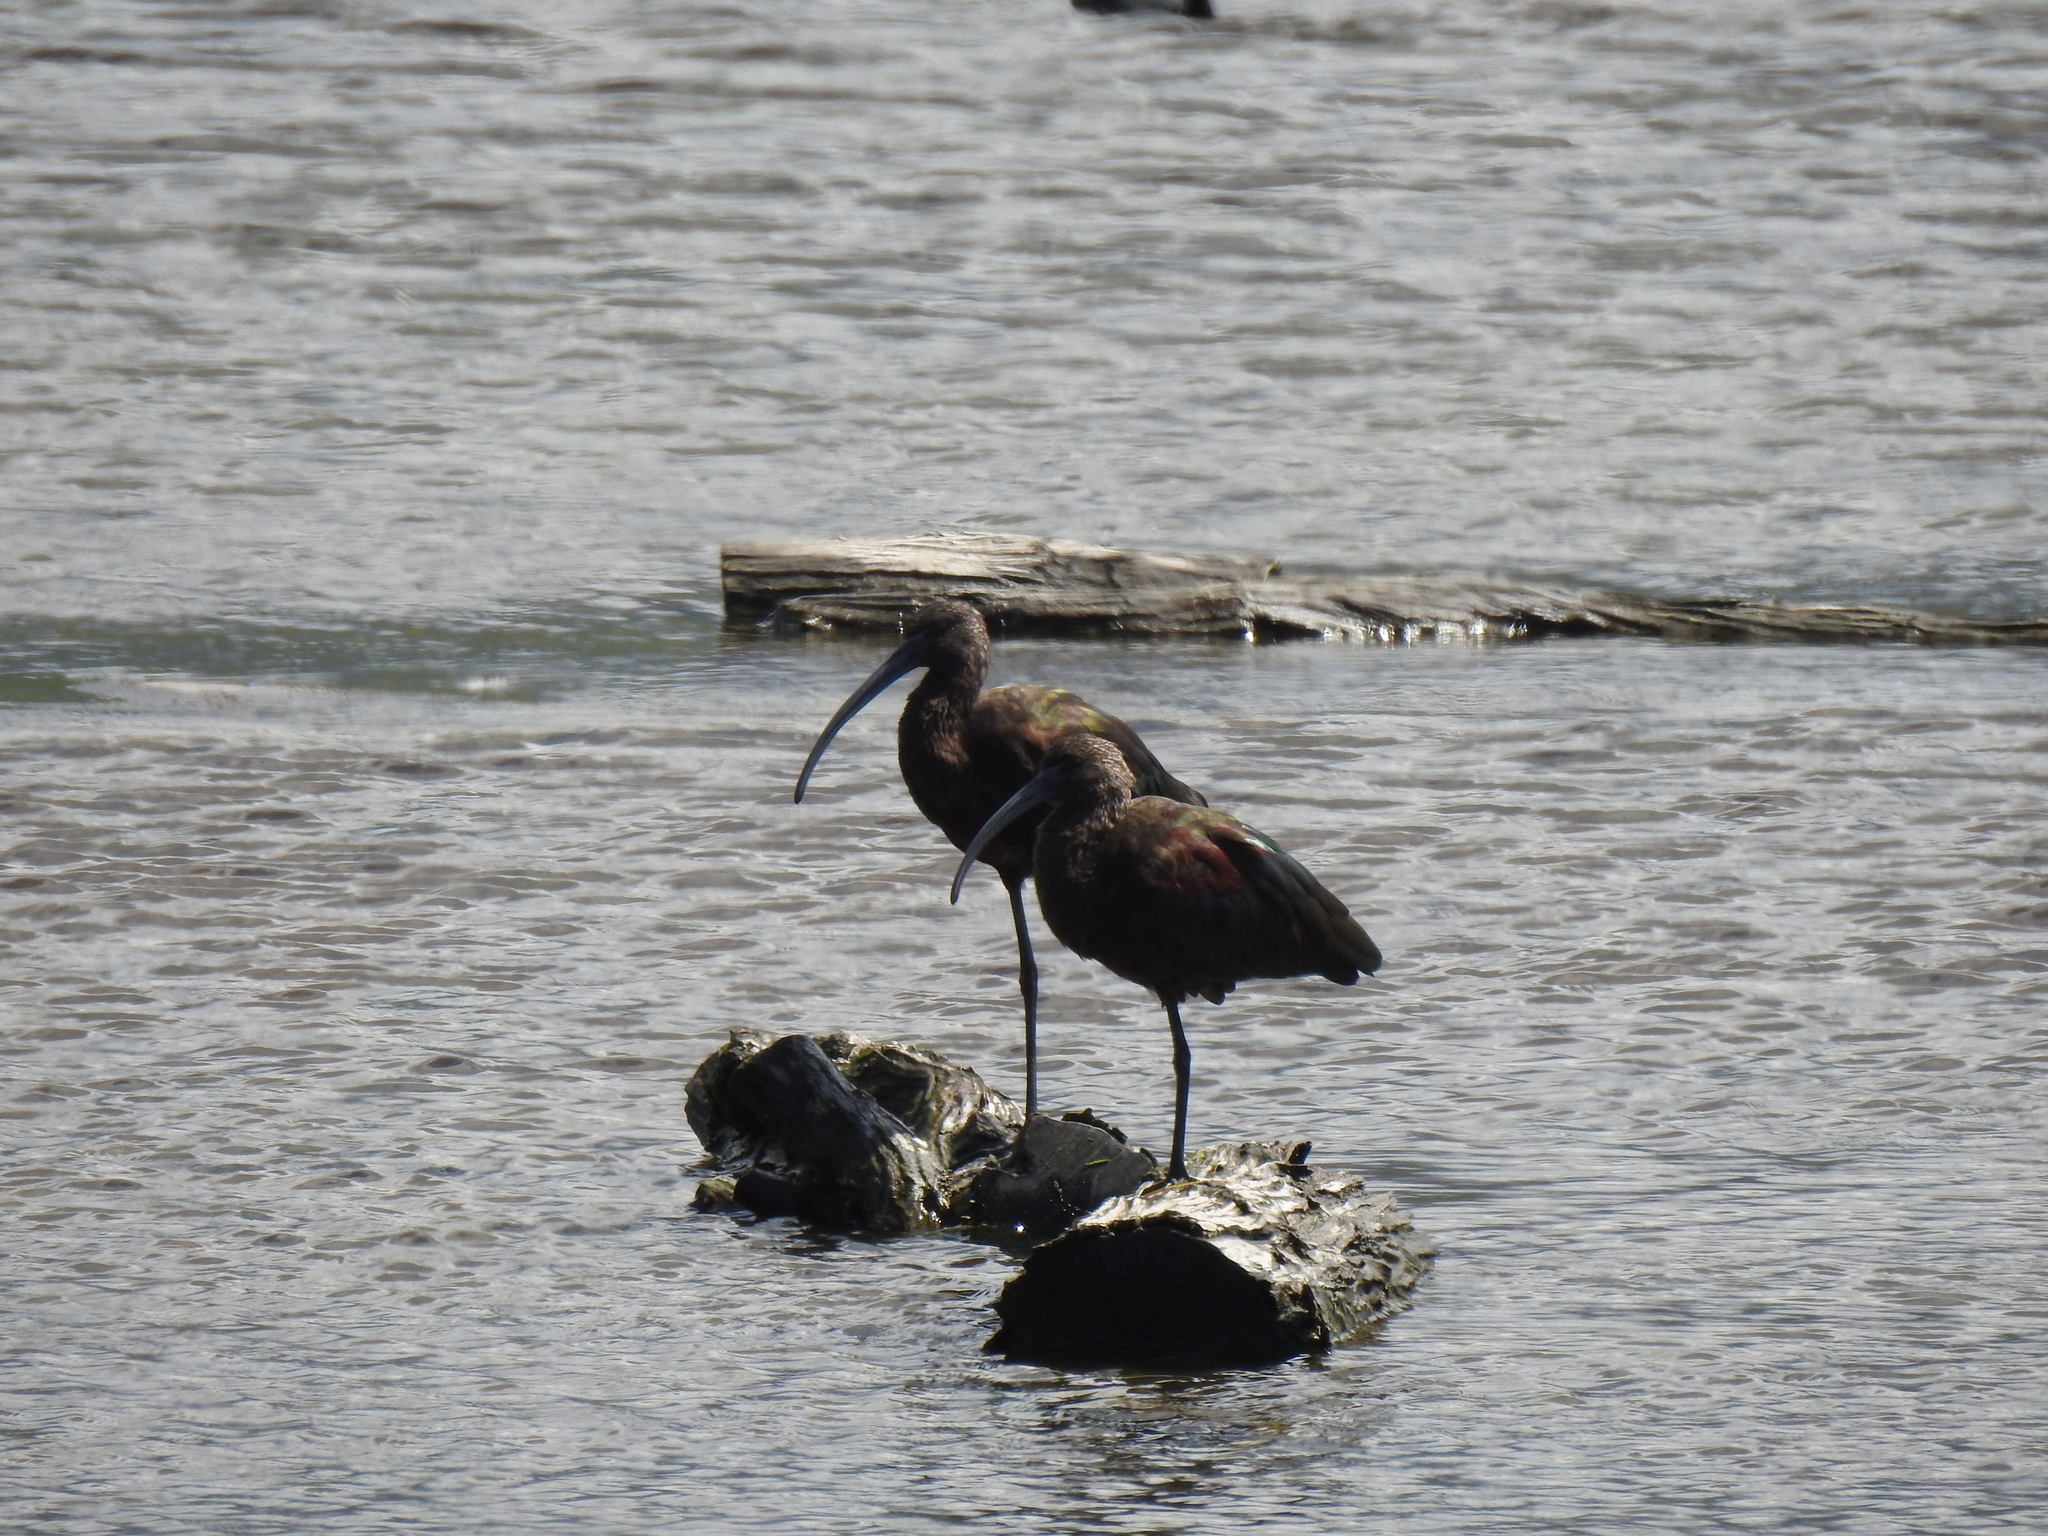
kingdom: Animalia
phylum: Chordata
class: Aves
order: Pelecaniformes
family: Threskiornithidae
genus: Plegadis
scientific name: Plegadis chihi
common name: White-faced ibis
